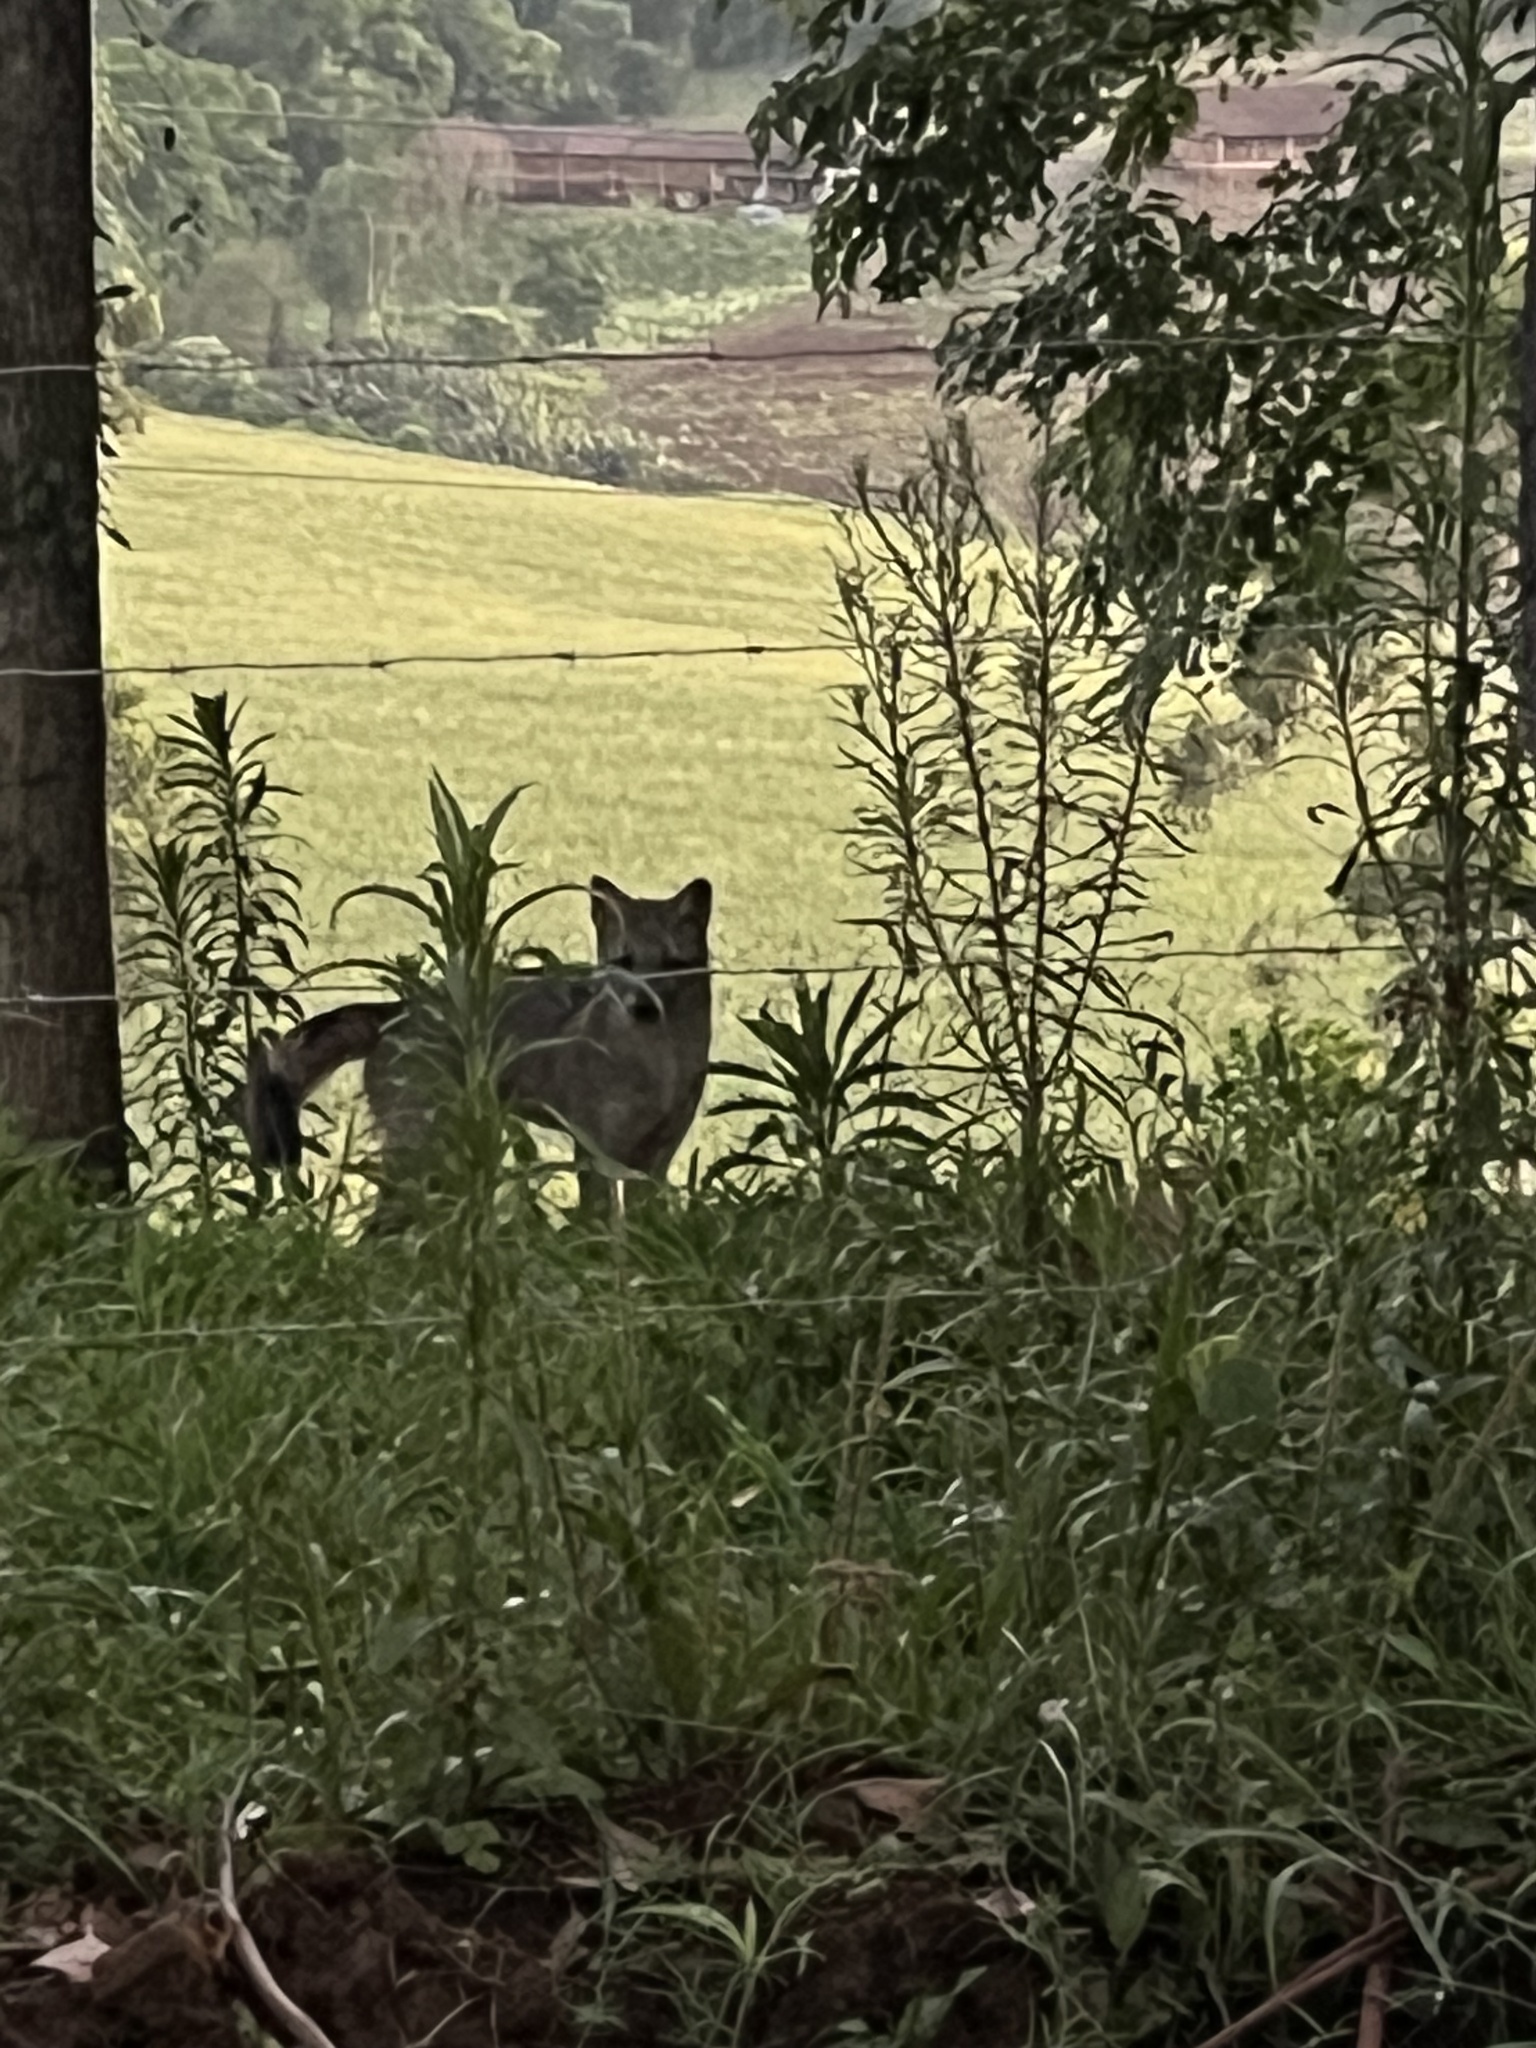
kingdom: Animalia
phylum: Chordata
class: Mammalia
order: Carnivora
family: Canidae
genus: Cerdocyon
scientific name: Cerdocyon thous
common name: Crab-eating fox
